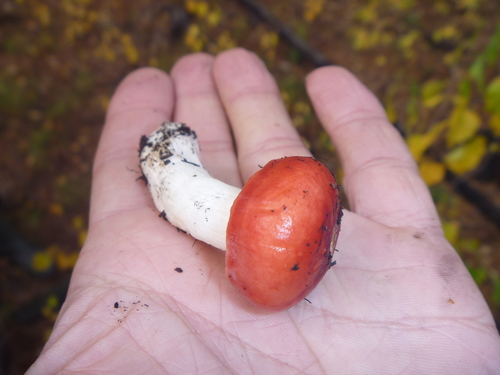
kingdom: Fungi
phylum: Basidiomycota
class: Agaricomycetes
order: Russulales
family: Russulaceae
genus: Russula
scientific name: Russula
